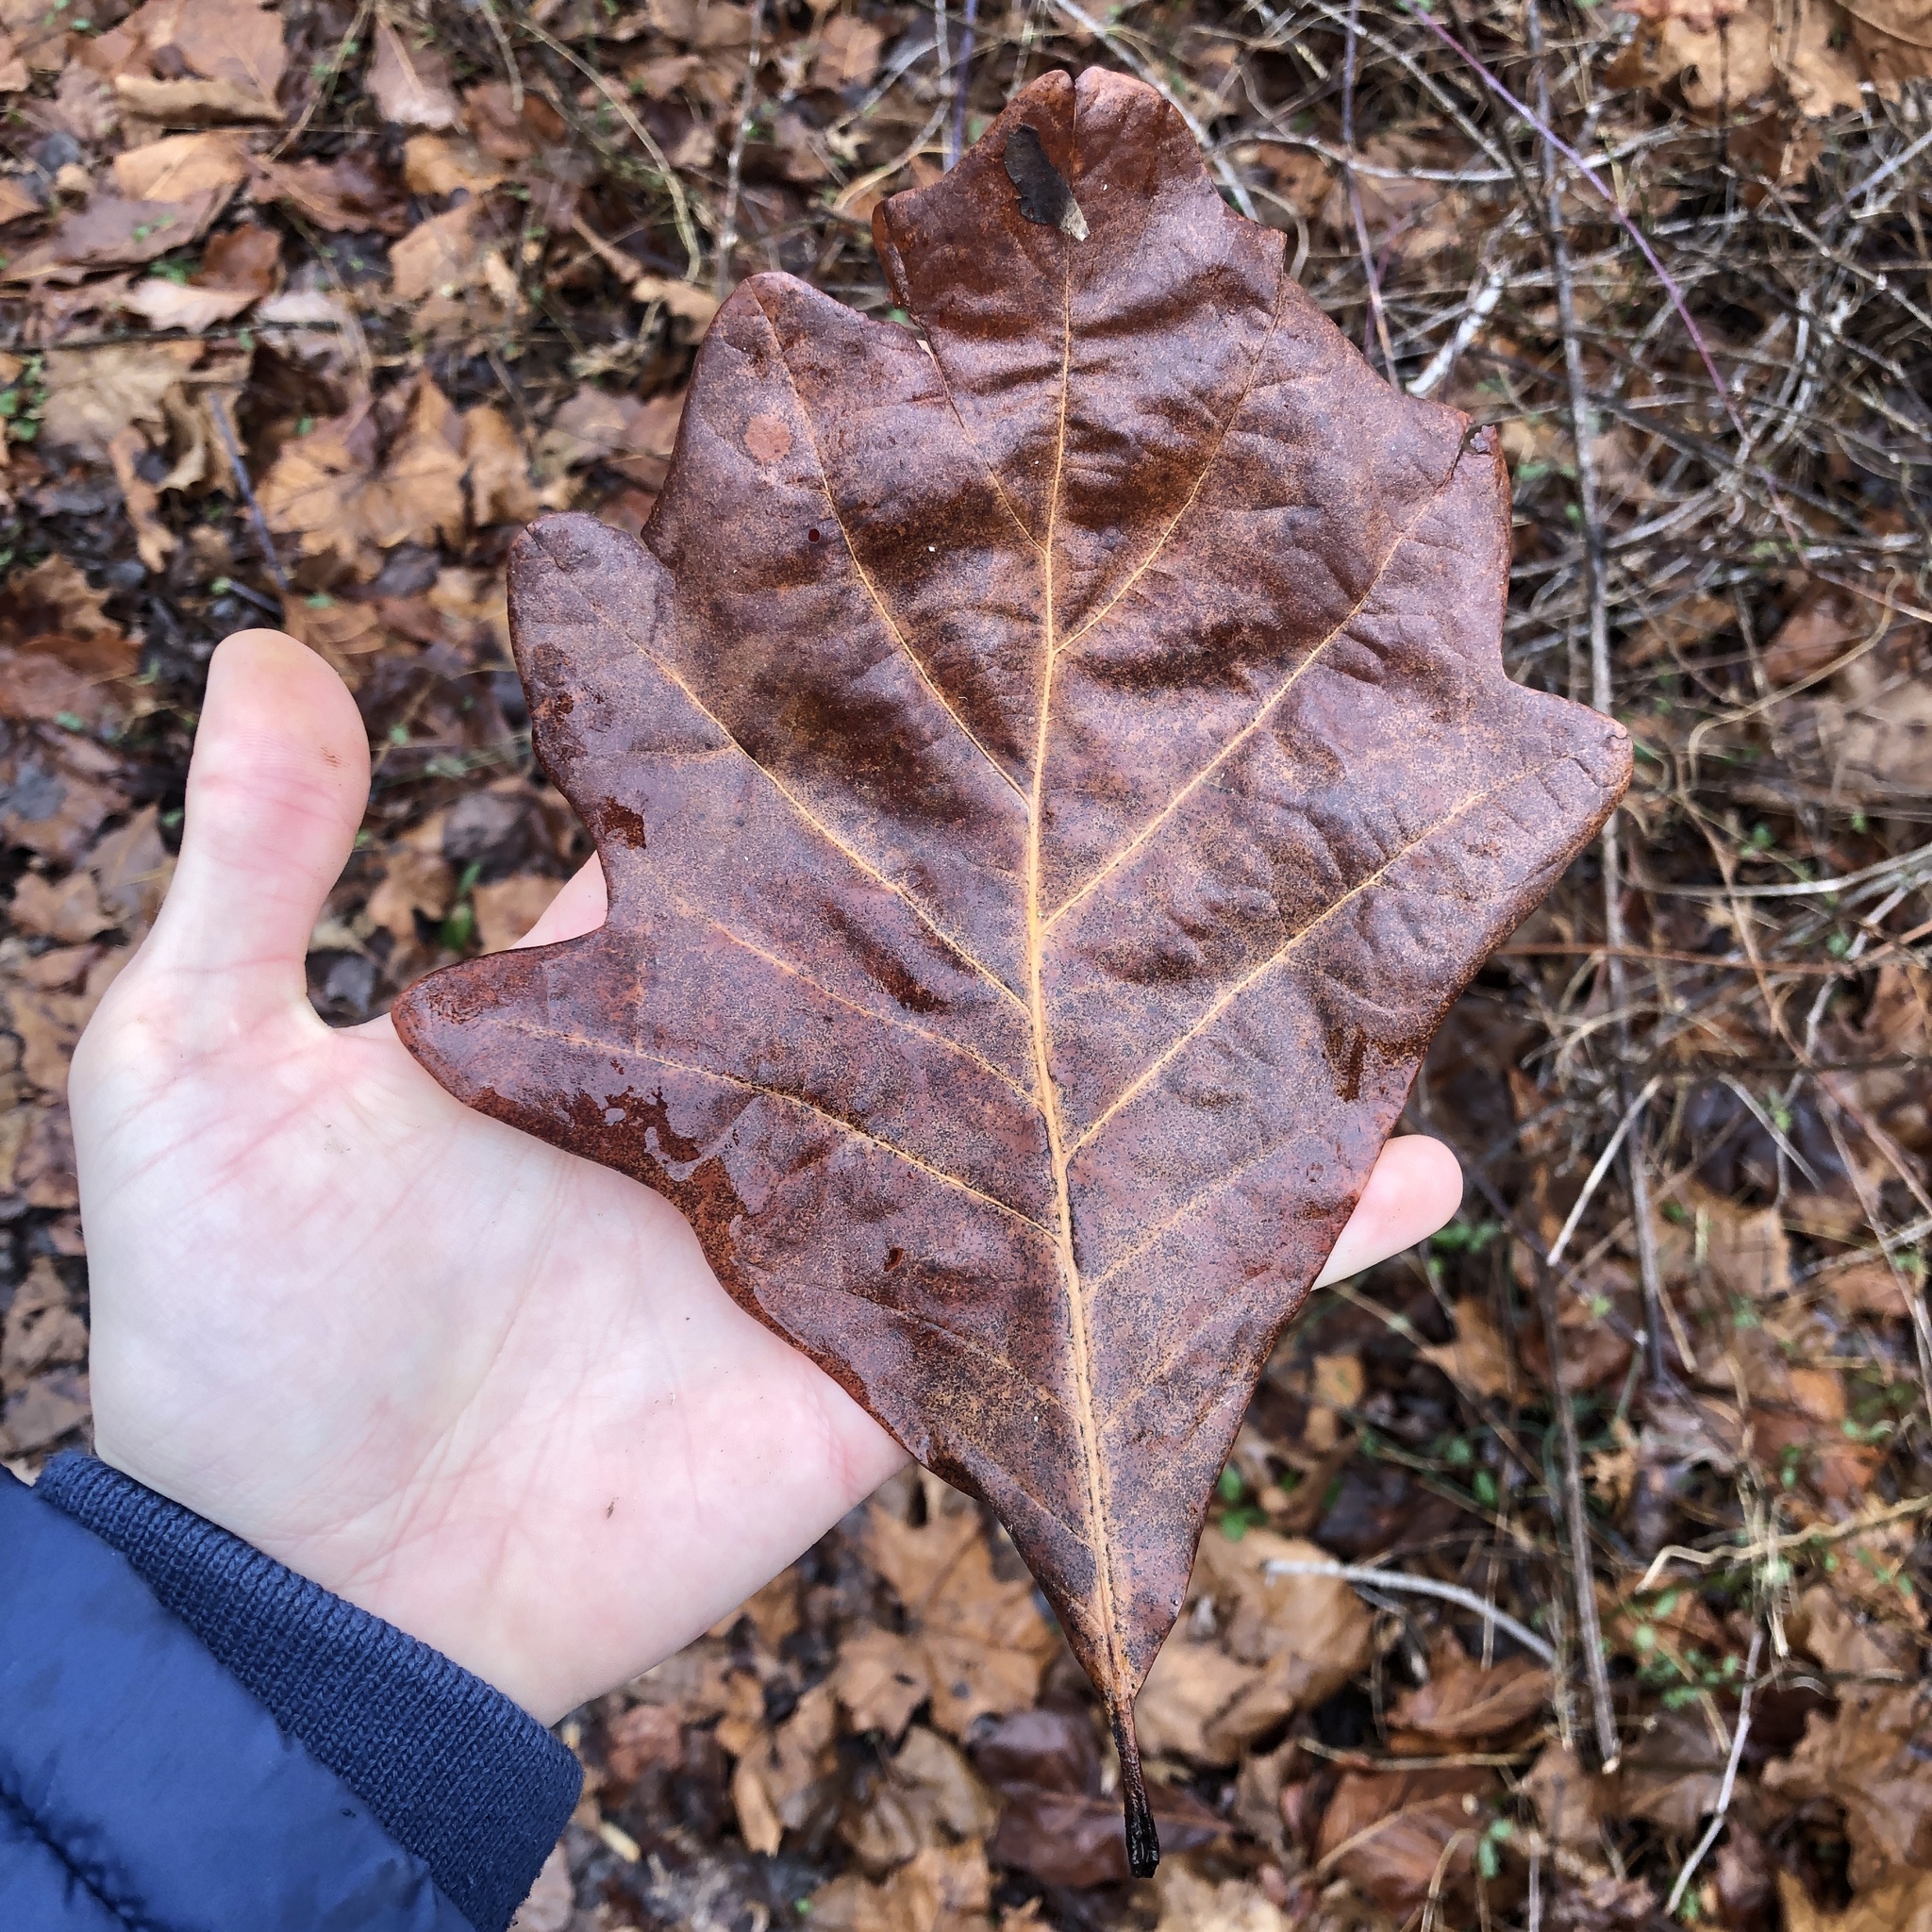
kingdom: Plantae
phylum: Tracheophyta
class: Magnoliopsida
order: Fagales
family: Fagaceae
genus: Quercus
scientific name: Quercus bicolor
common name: Swamp white oak
